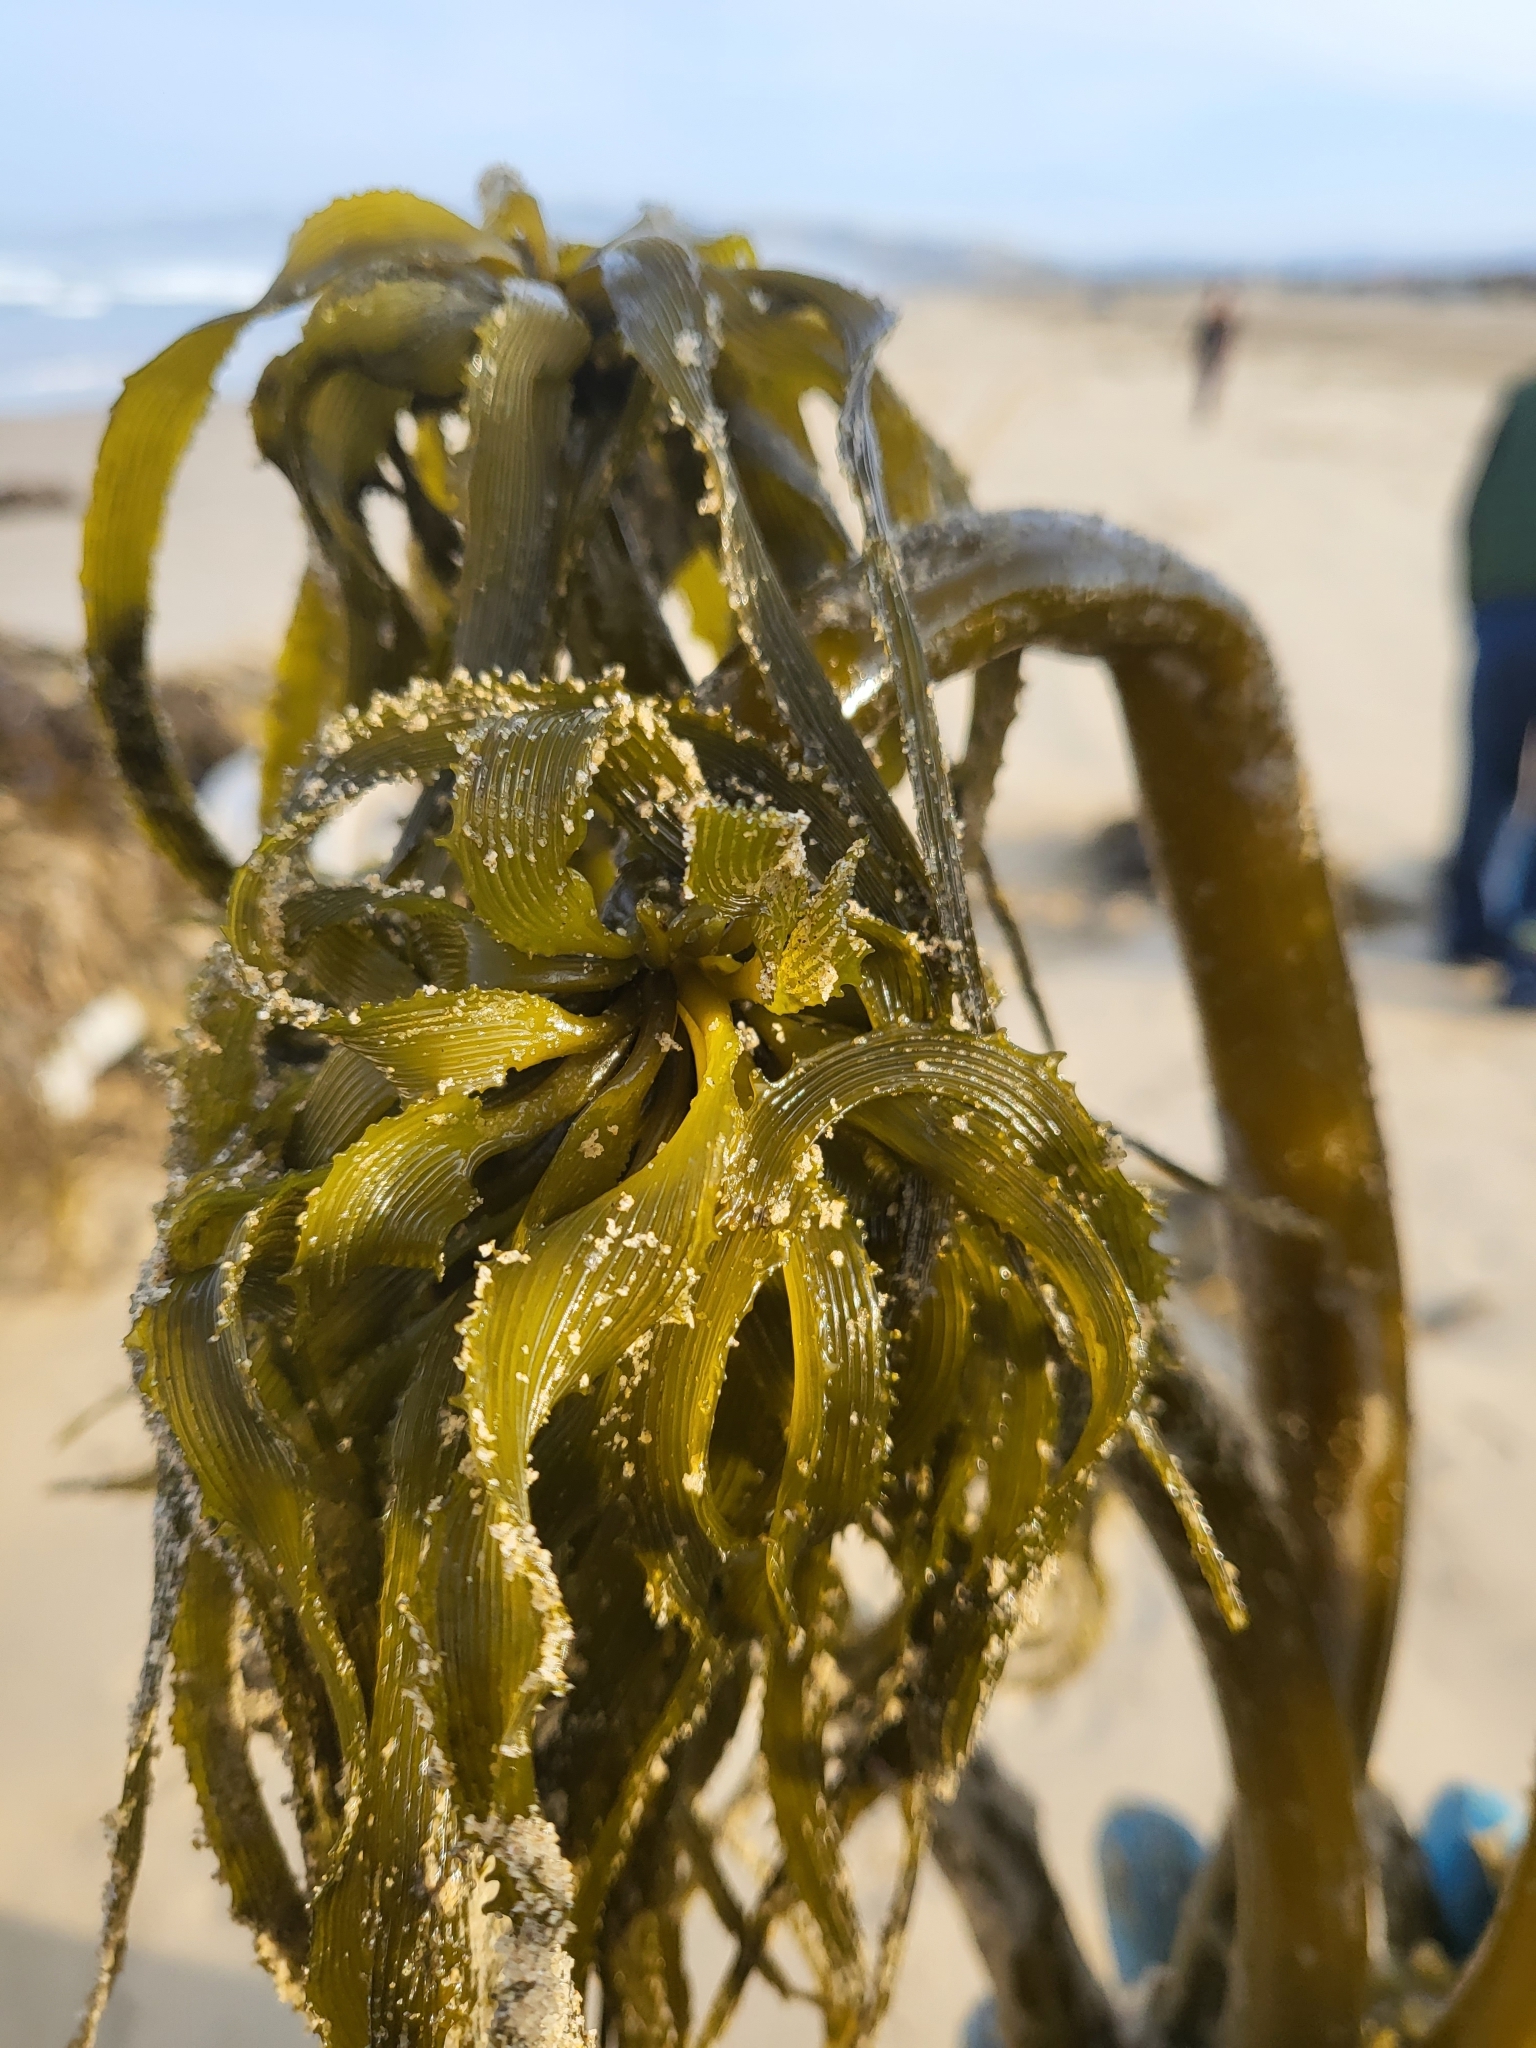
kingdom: Chromista
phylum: Ochrophyta
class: Phaeophyceae
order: Laminariales
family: Laminariaceae
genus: Postelsia
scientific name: Postelsia palmiformis
